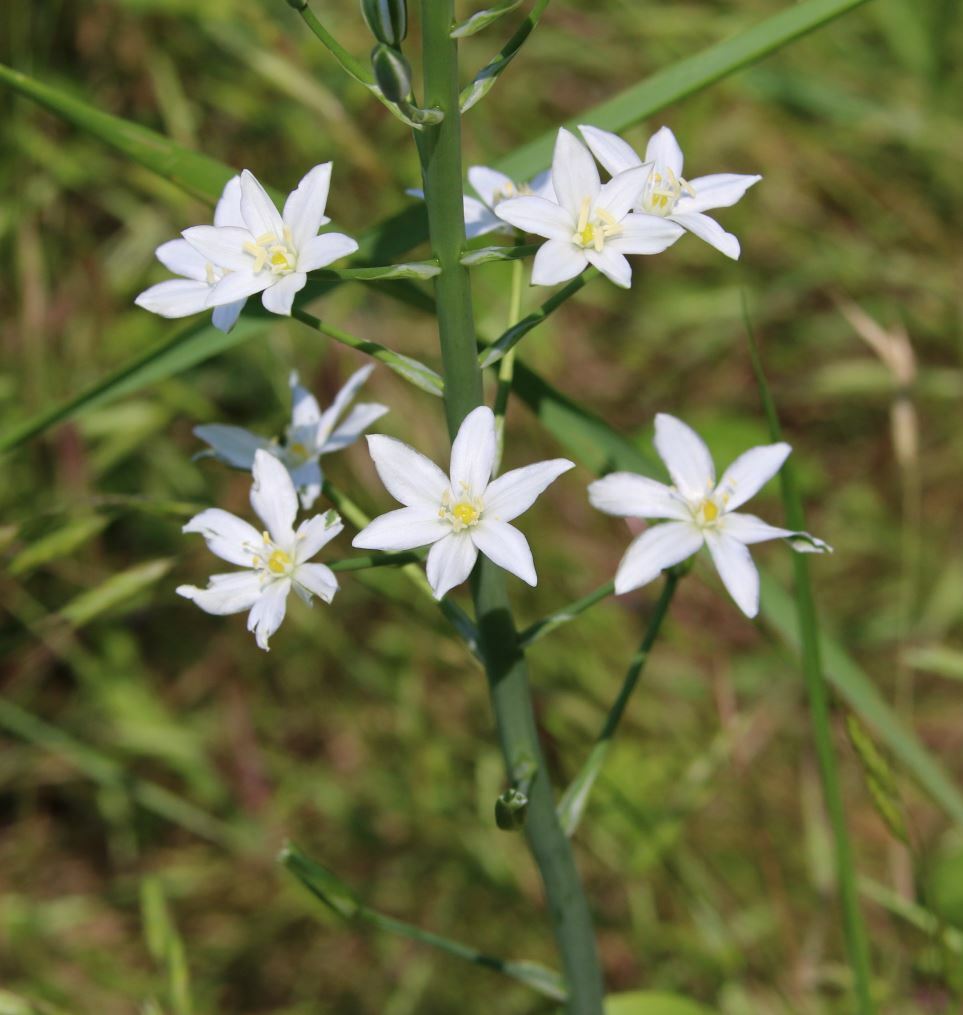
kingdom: Plantae
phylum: Tracheophyta
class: Liliopsida
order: Asparagales
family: Asparagaceae
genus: Ornithogalum
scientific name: Ornithogalum pyramidale
